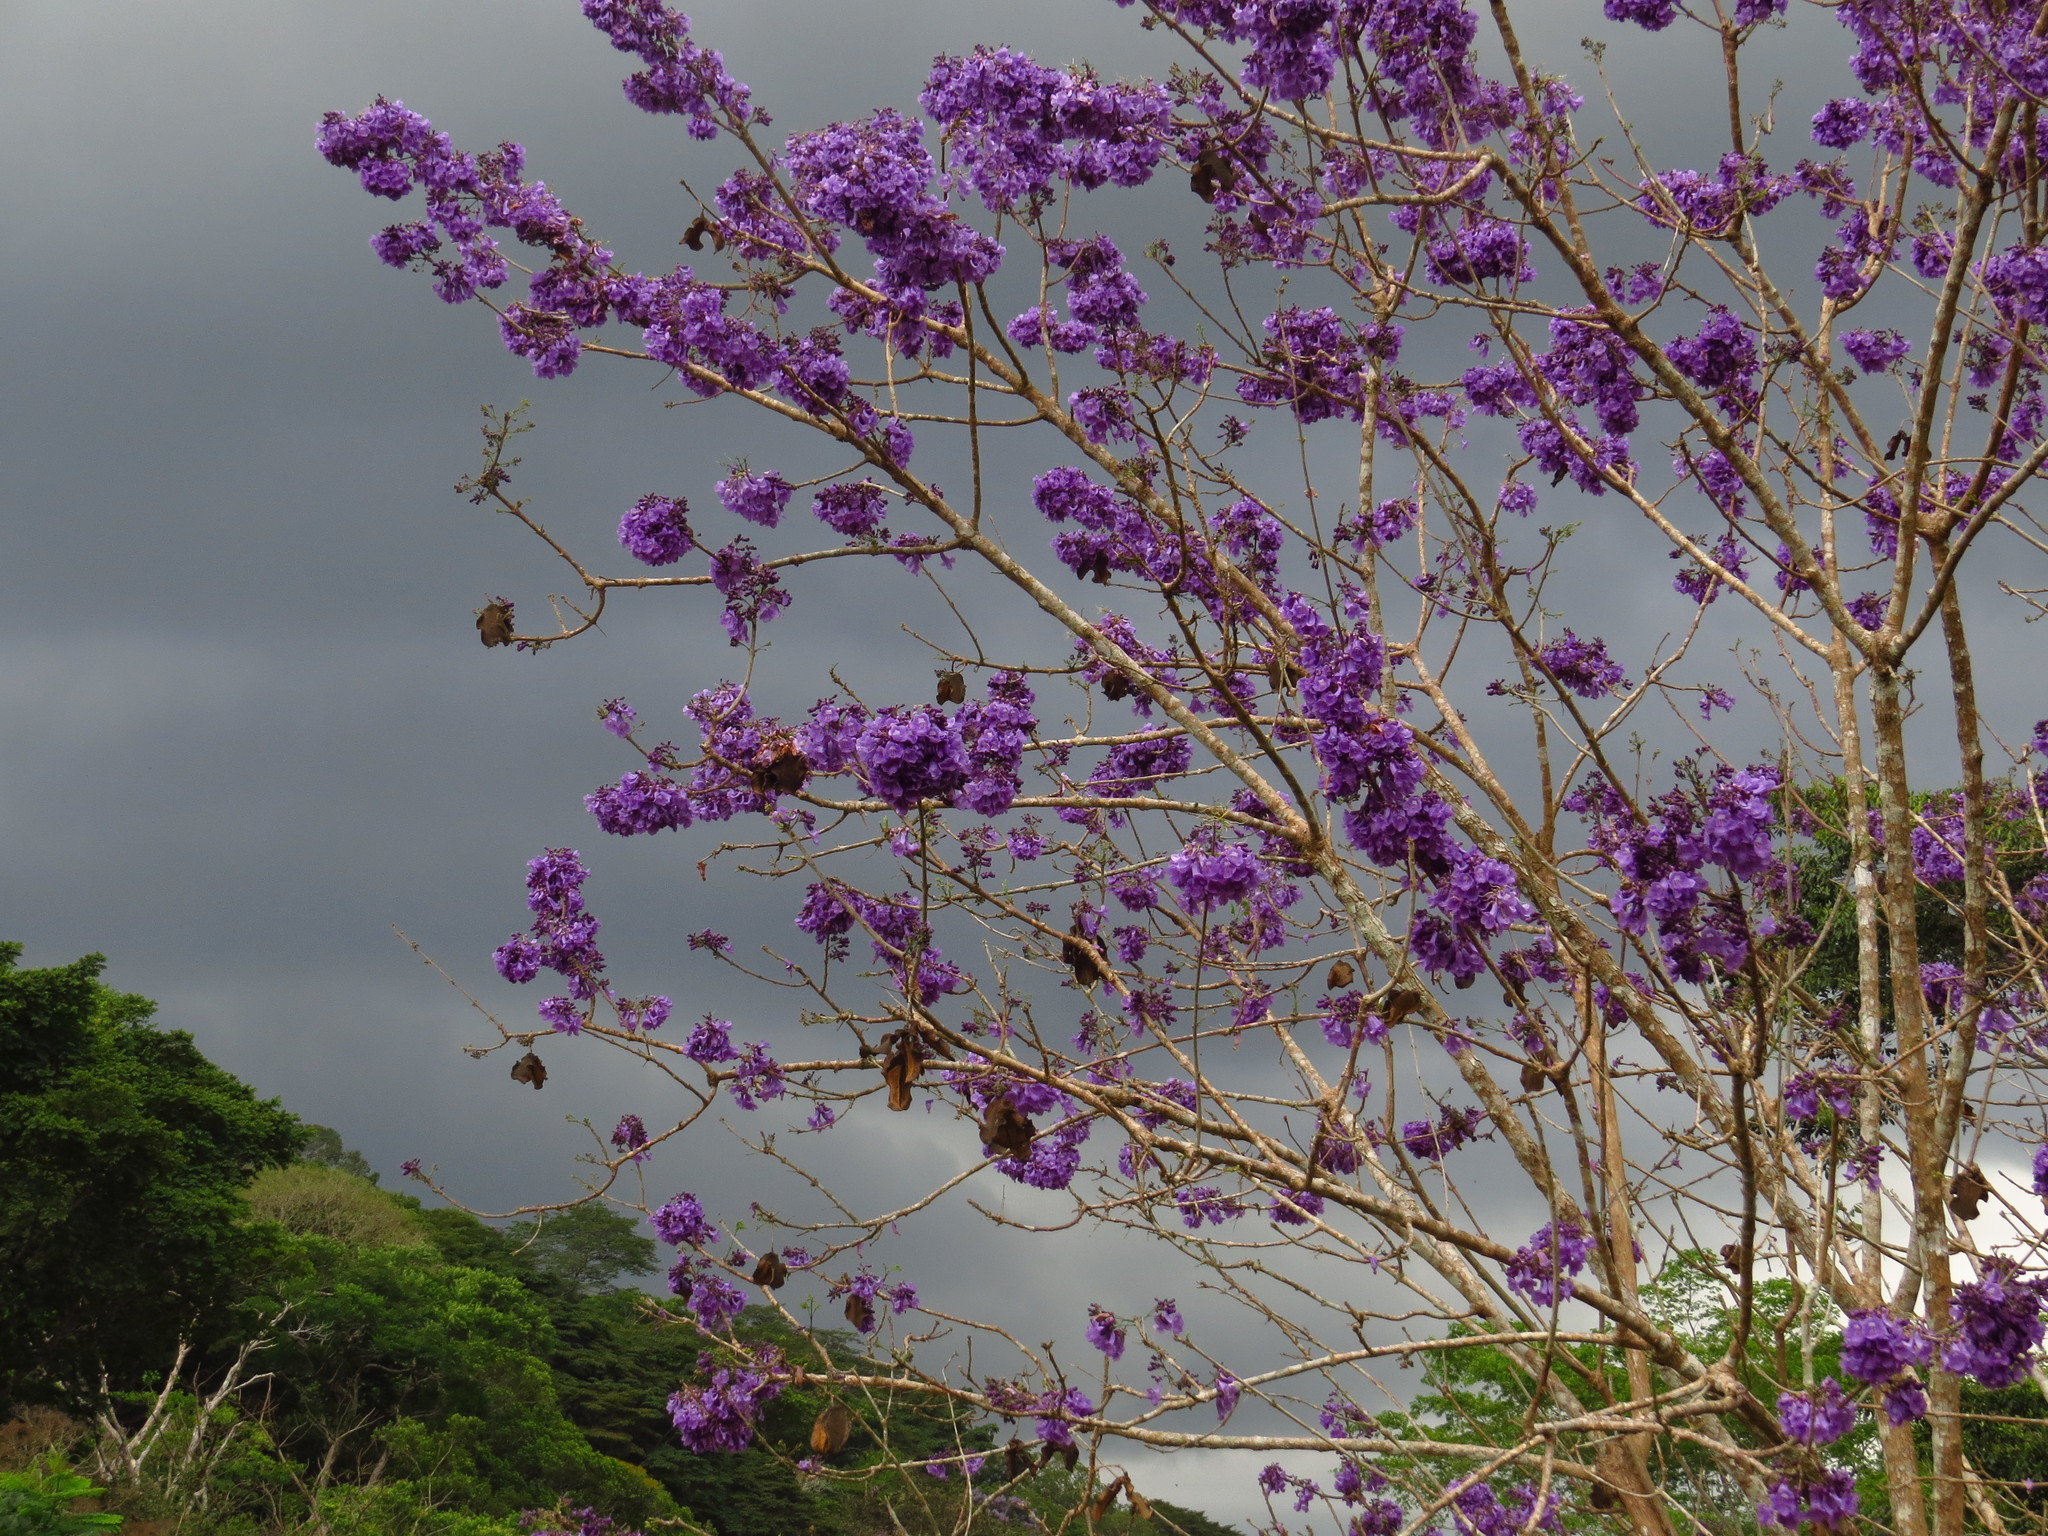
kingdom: Plantae
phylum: Tracheophyta
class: Magnoliopsida
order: Lamiales
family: Bignoniaceae
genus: Jacaranda
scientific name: Jacaranda caucana
